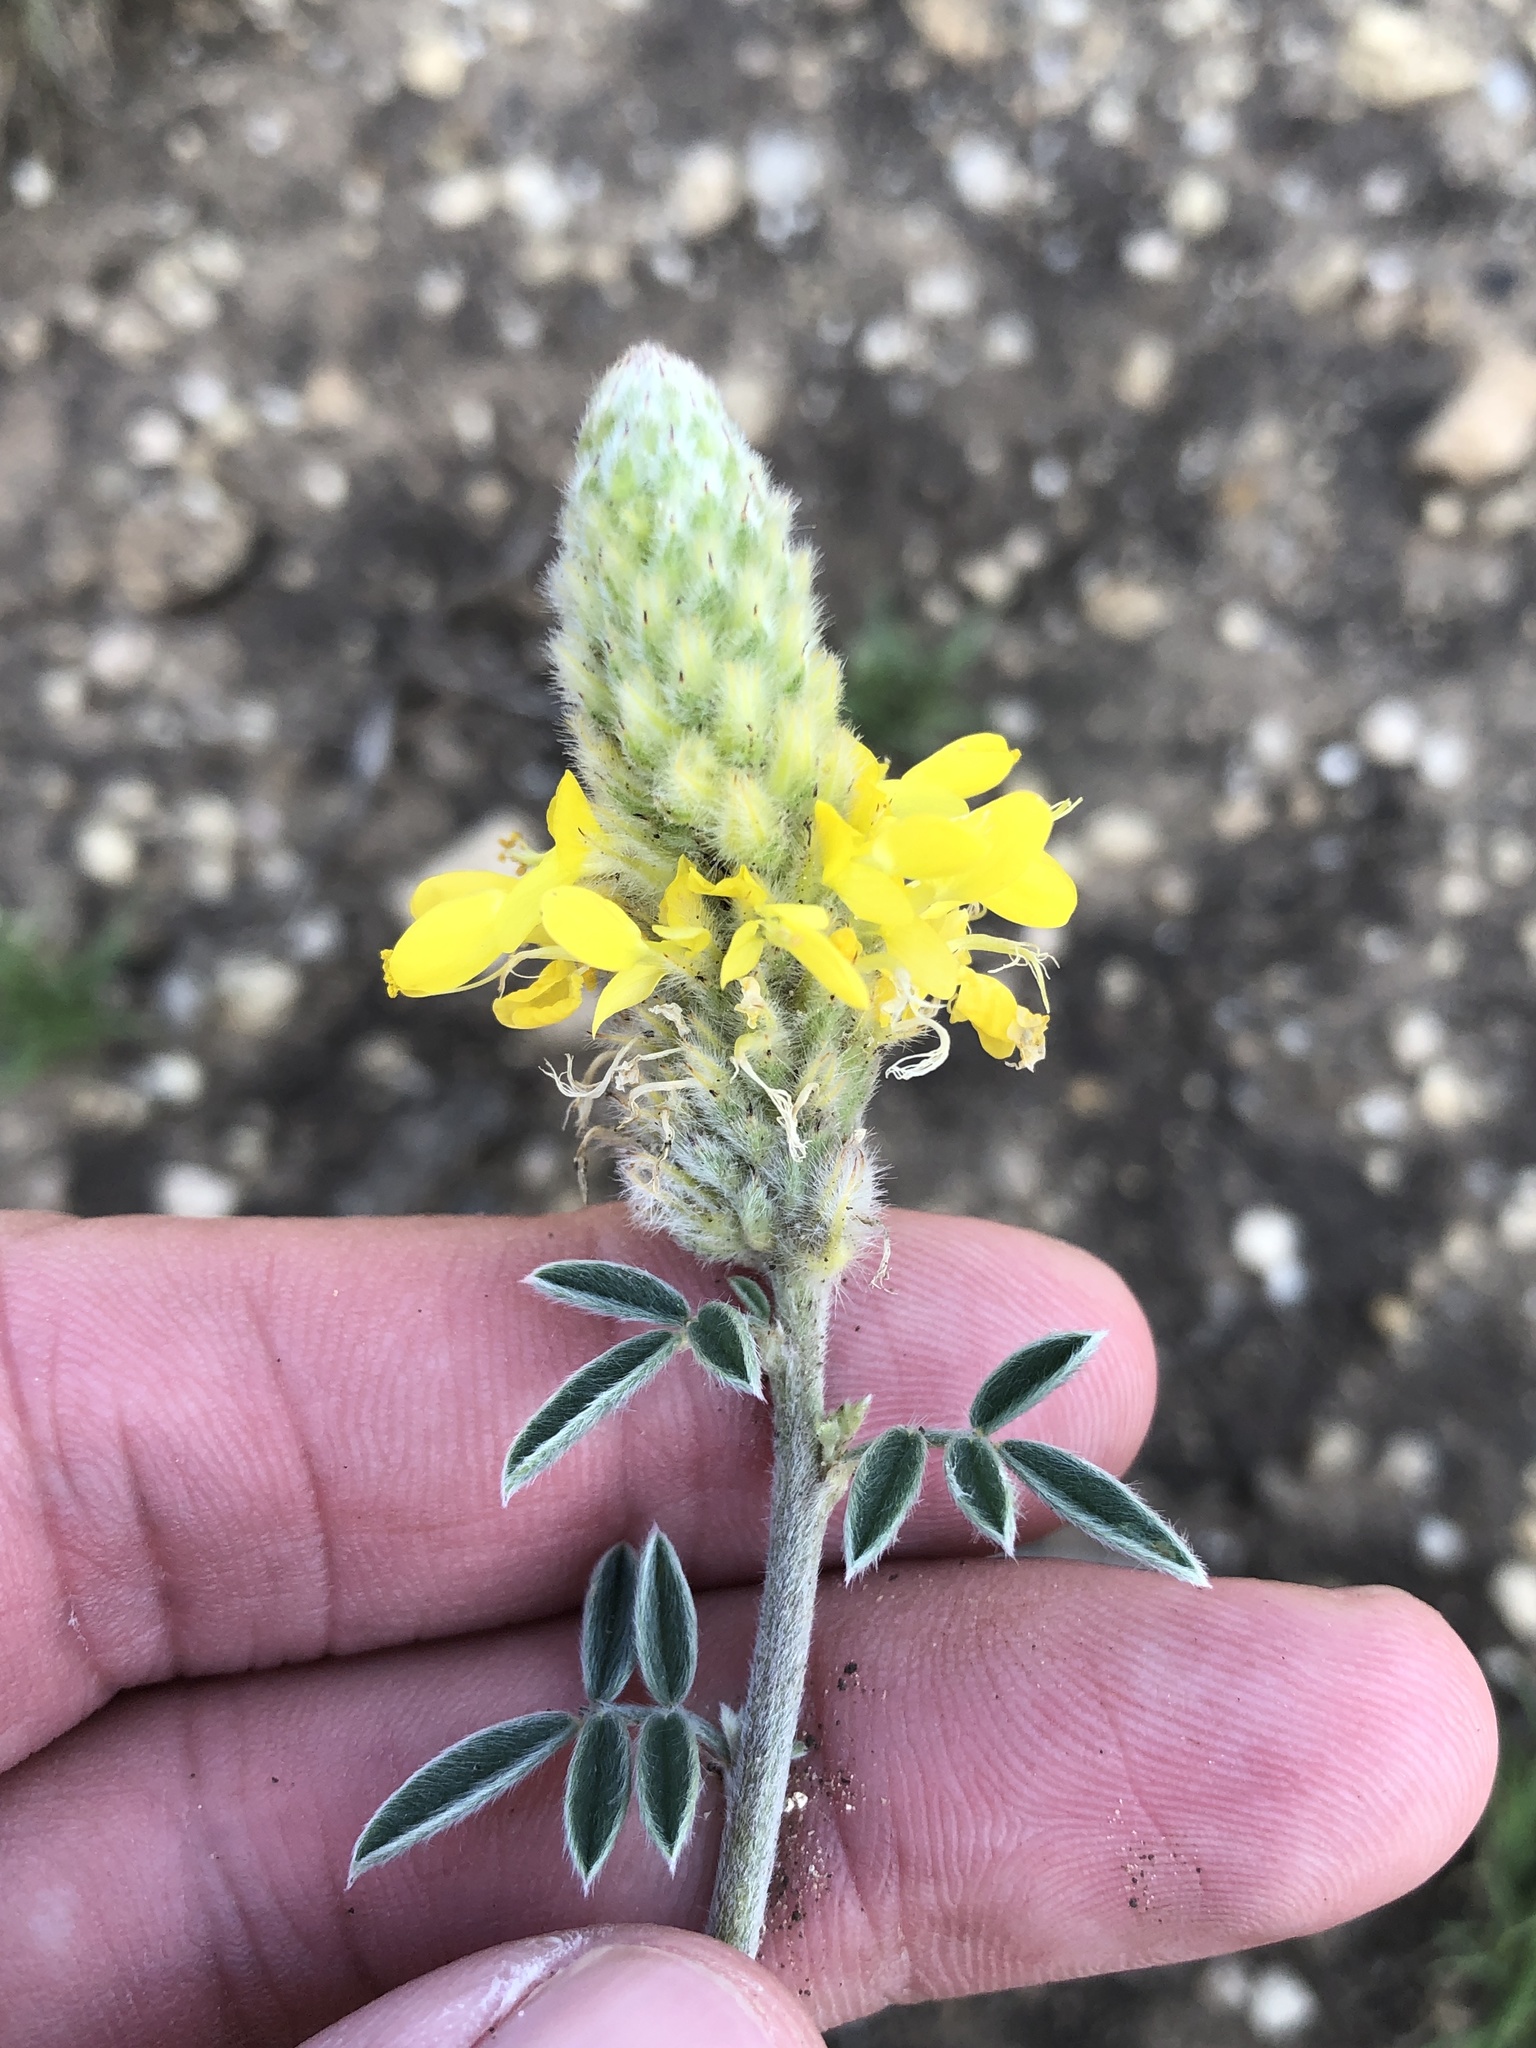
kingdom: Plantae
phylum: Tracheophyta
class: Magnoliopsida
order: Fabales
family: Fabaceae
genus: Dalea
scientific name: Dalea aurea
